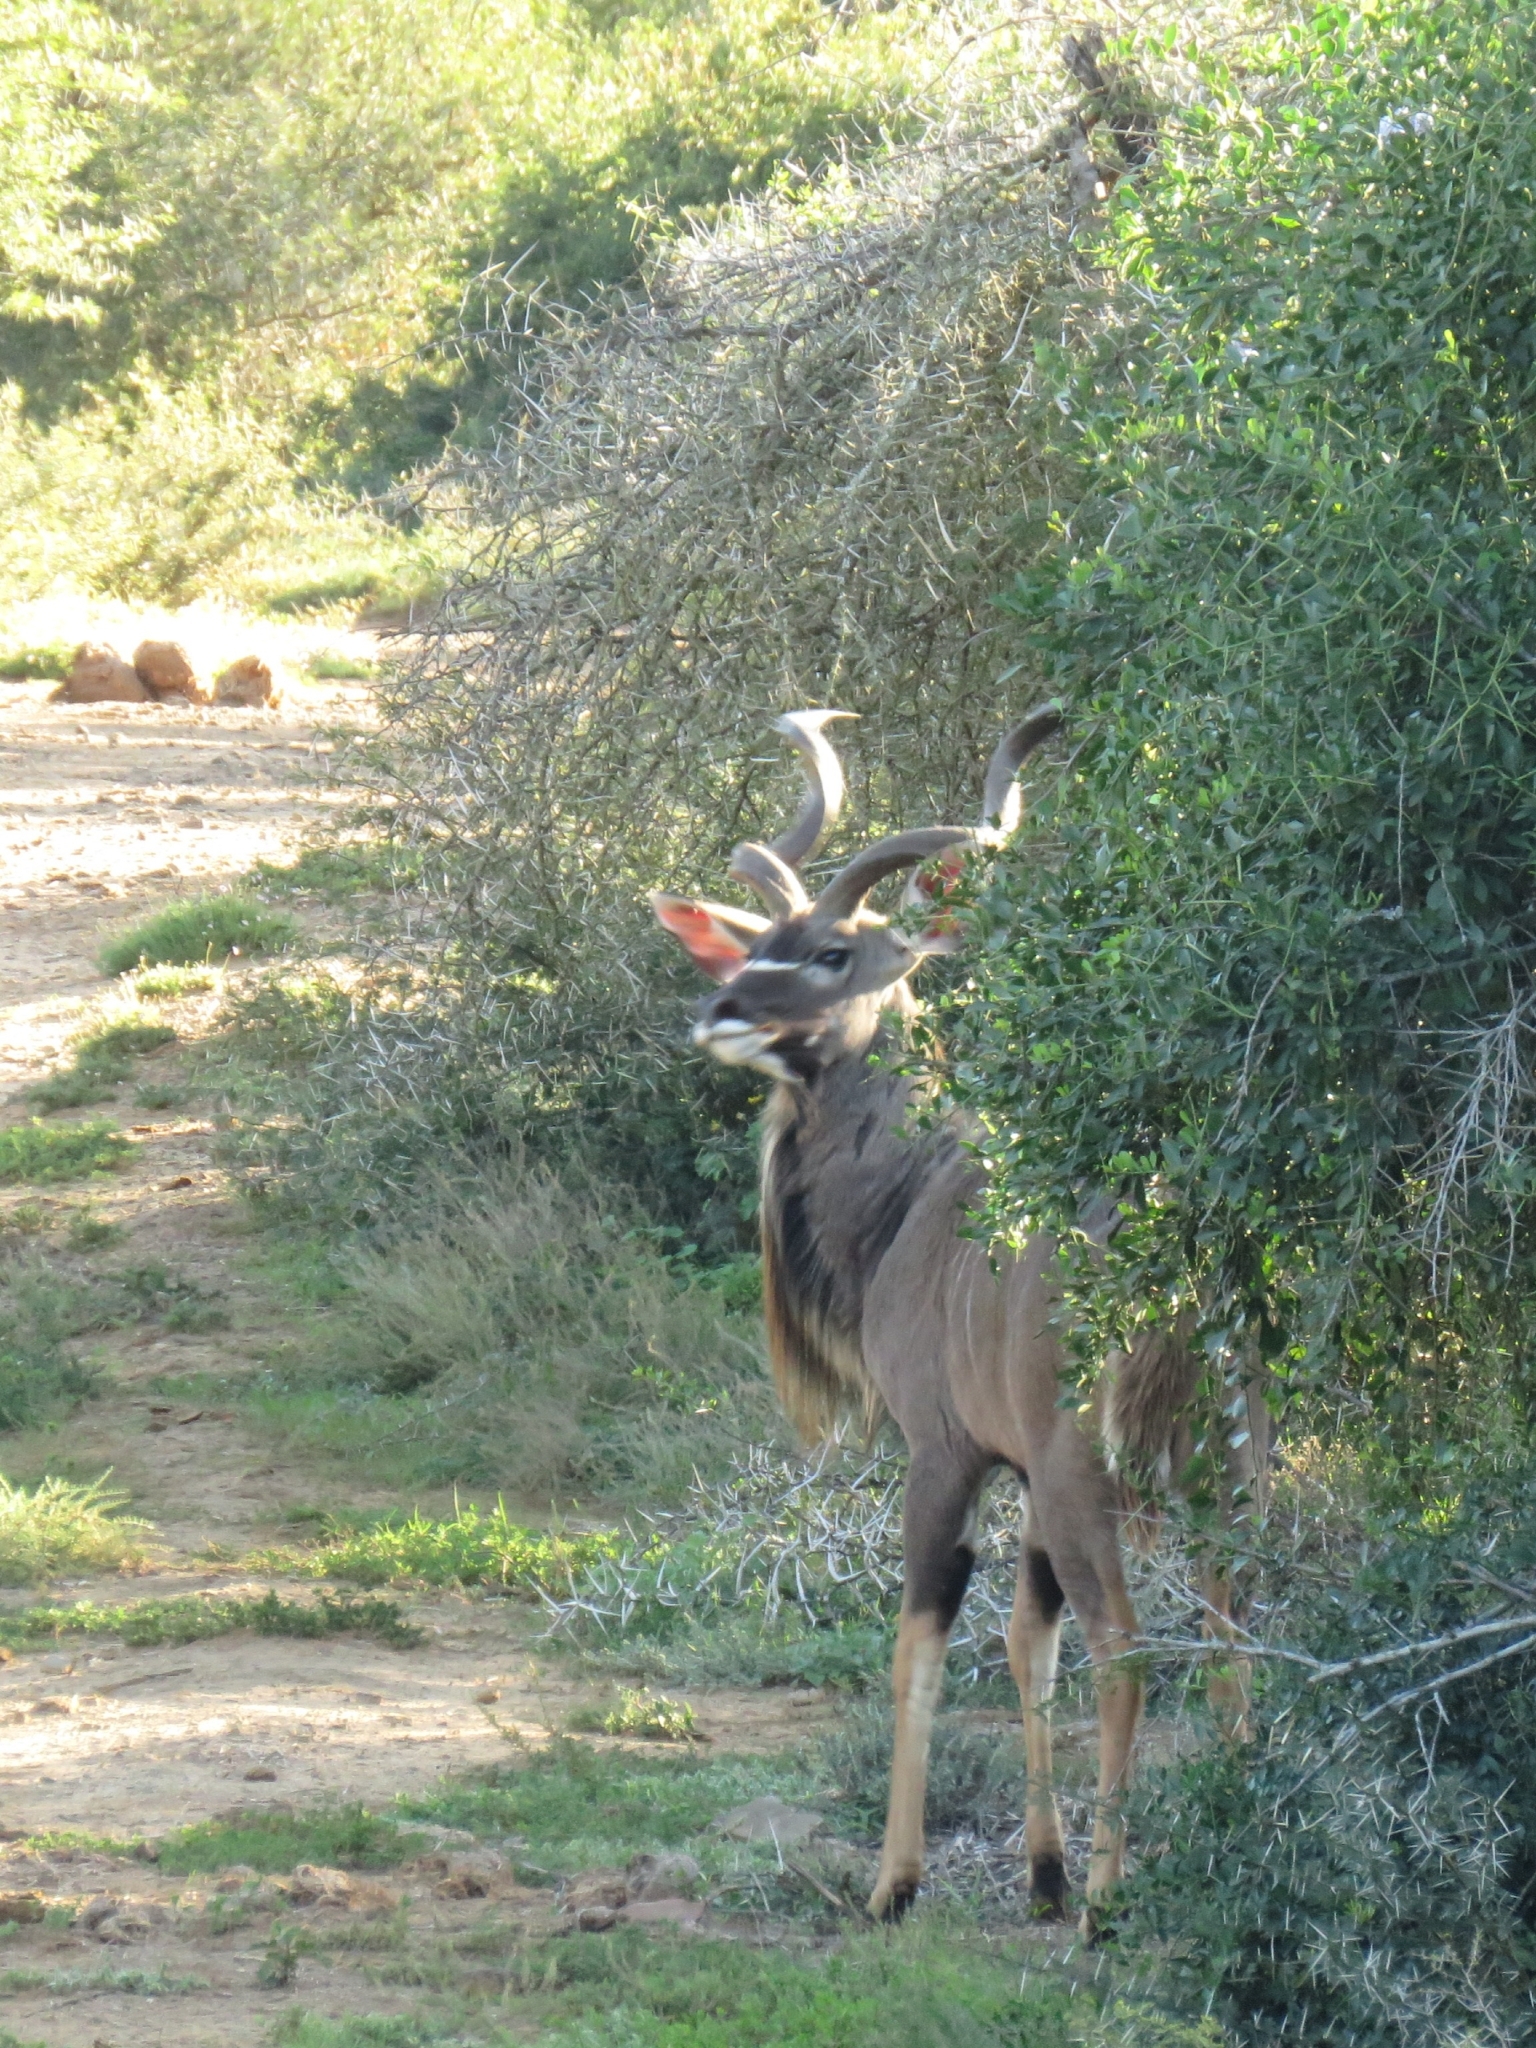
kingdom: Animalia
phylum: Chordata
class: Mammalia
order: Artiodactyla
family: Bovidae
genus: Tragelaphus
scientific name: Tragelaphus strepsiceros
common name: Greater kudu
